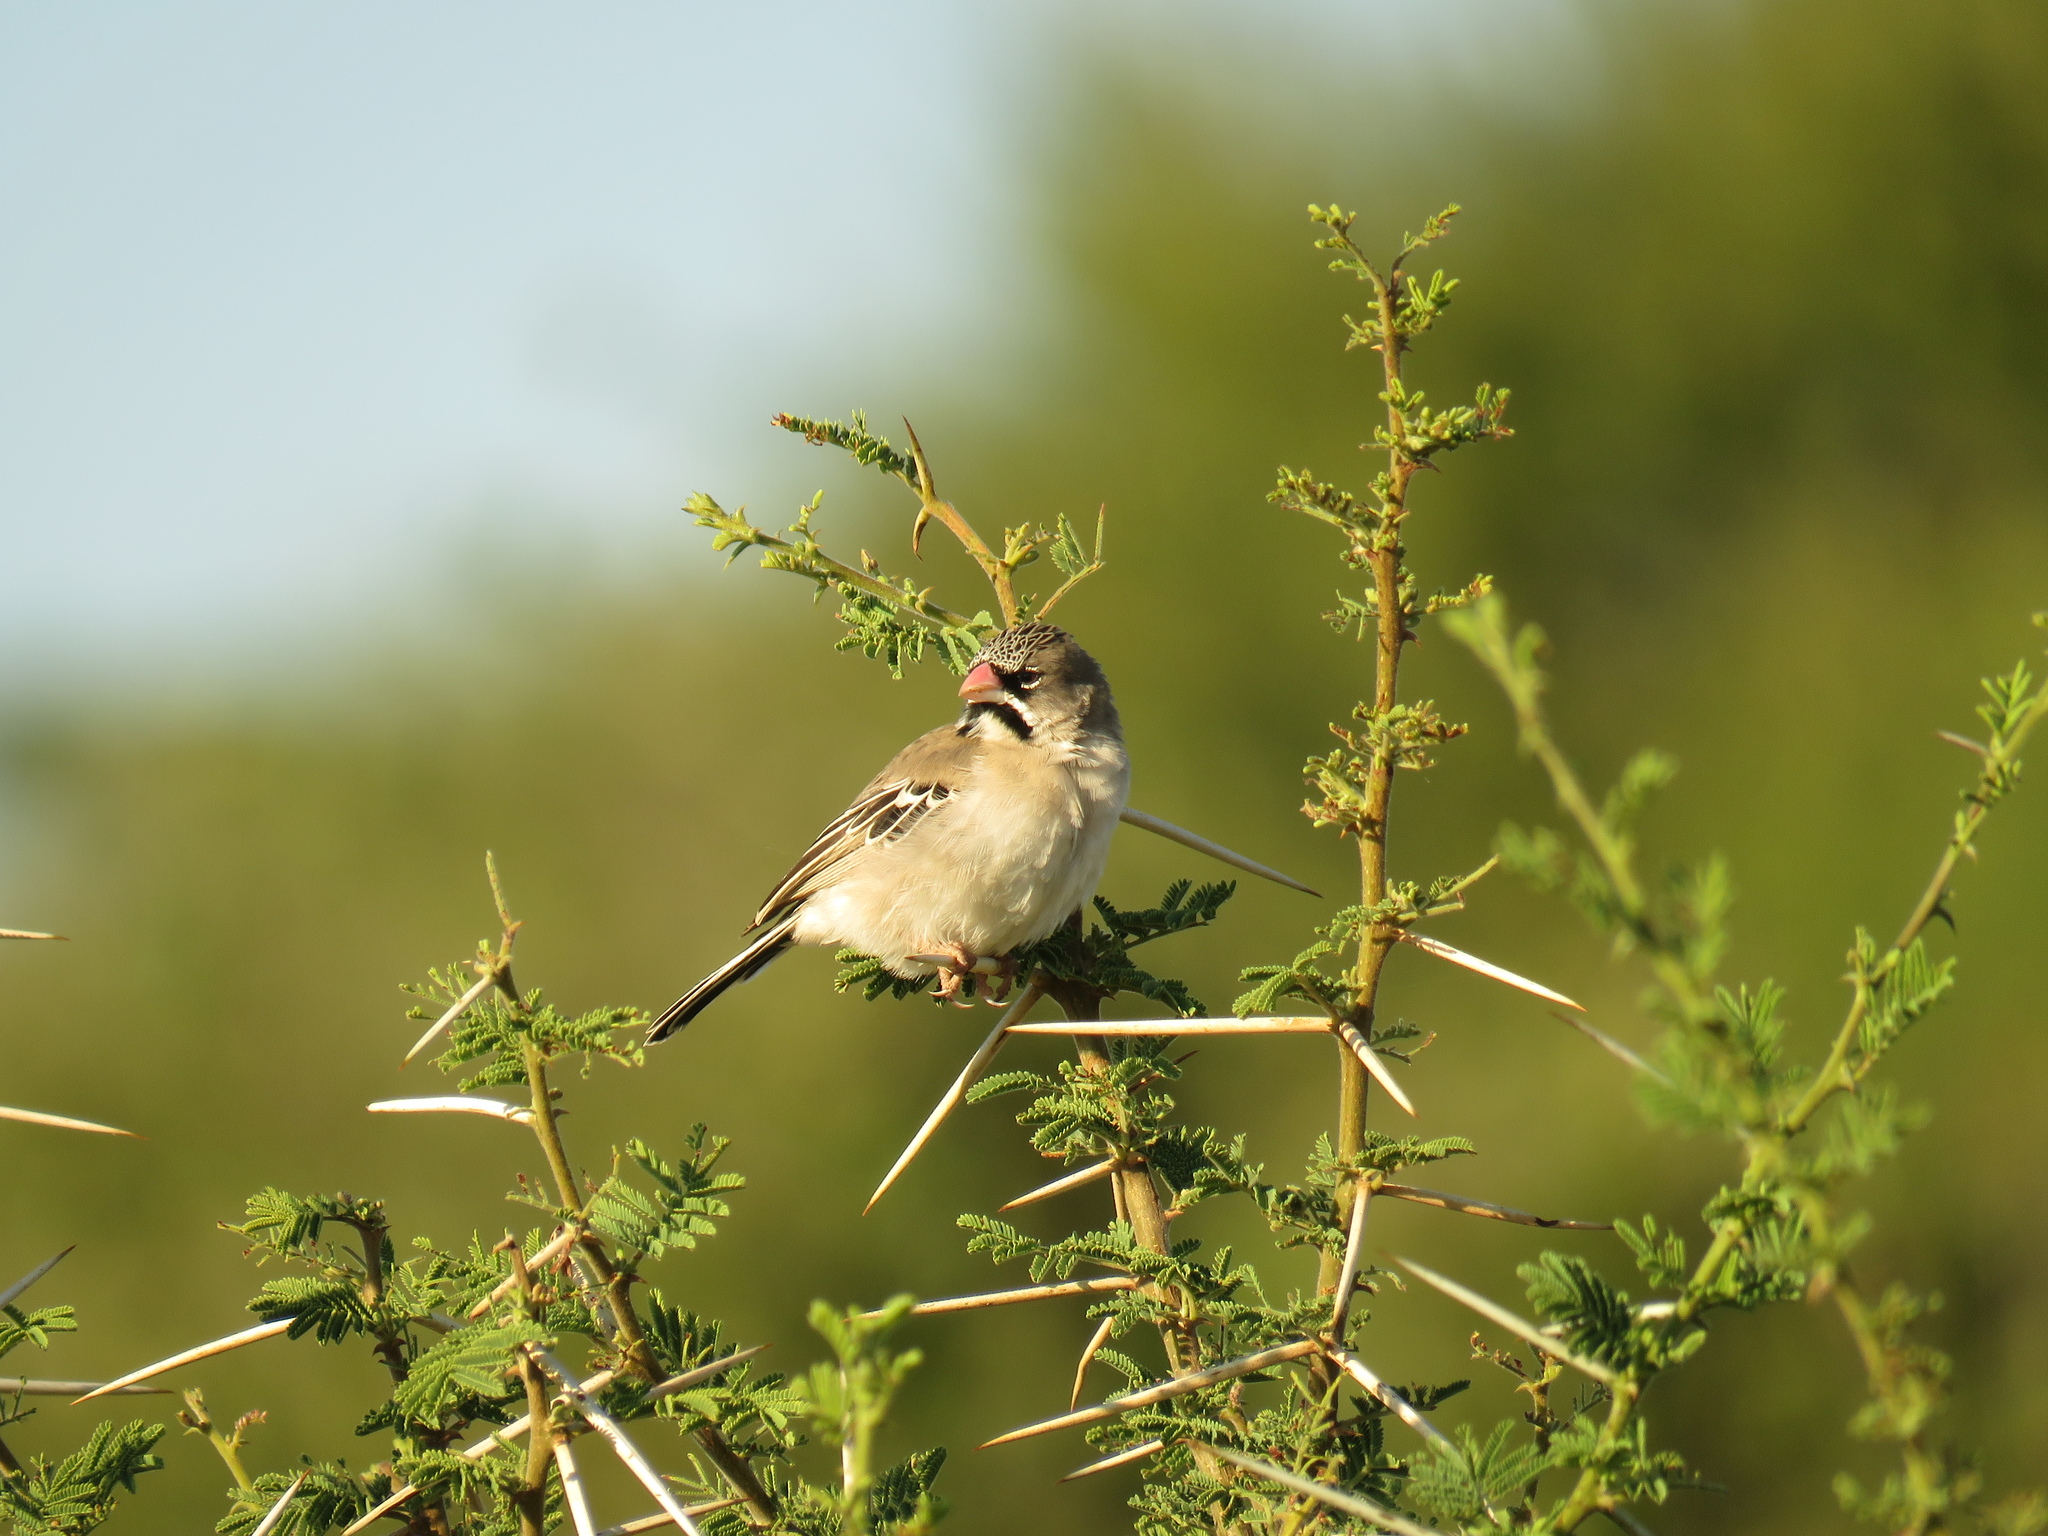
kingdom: Animalia
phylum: Chordata
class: Aves
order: Passeriformes
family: Ploceidae
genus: Sporopipes
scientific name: Sporopipes squamifrons
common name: Scaly-feathered weaver
